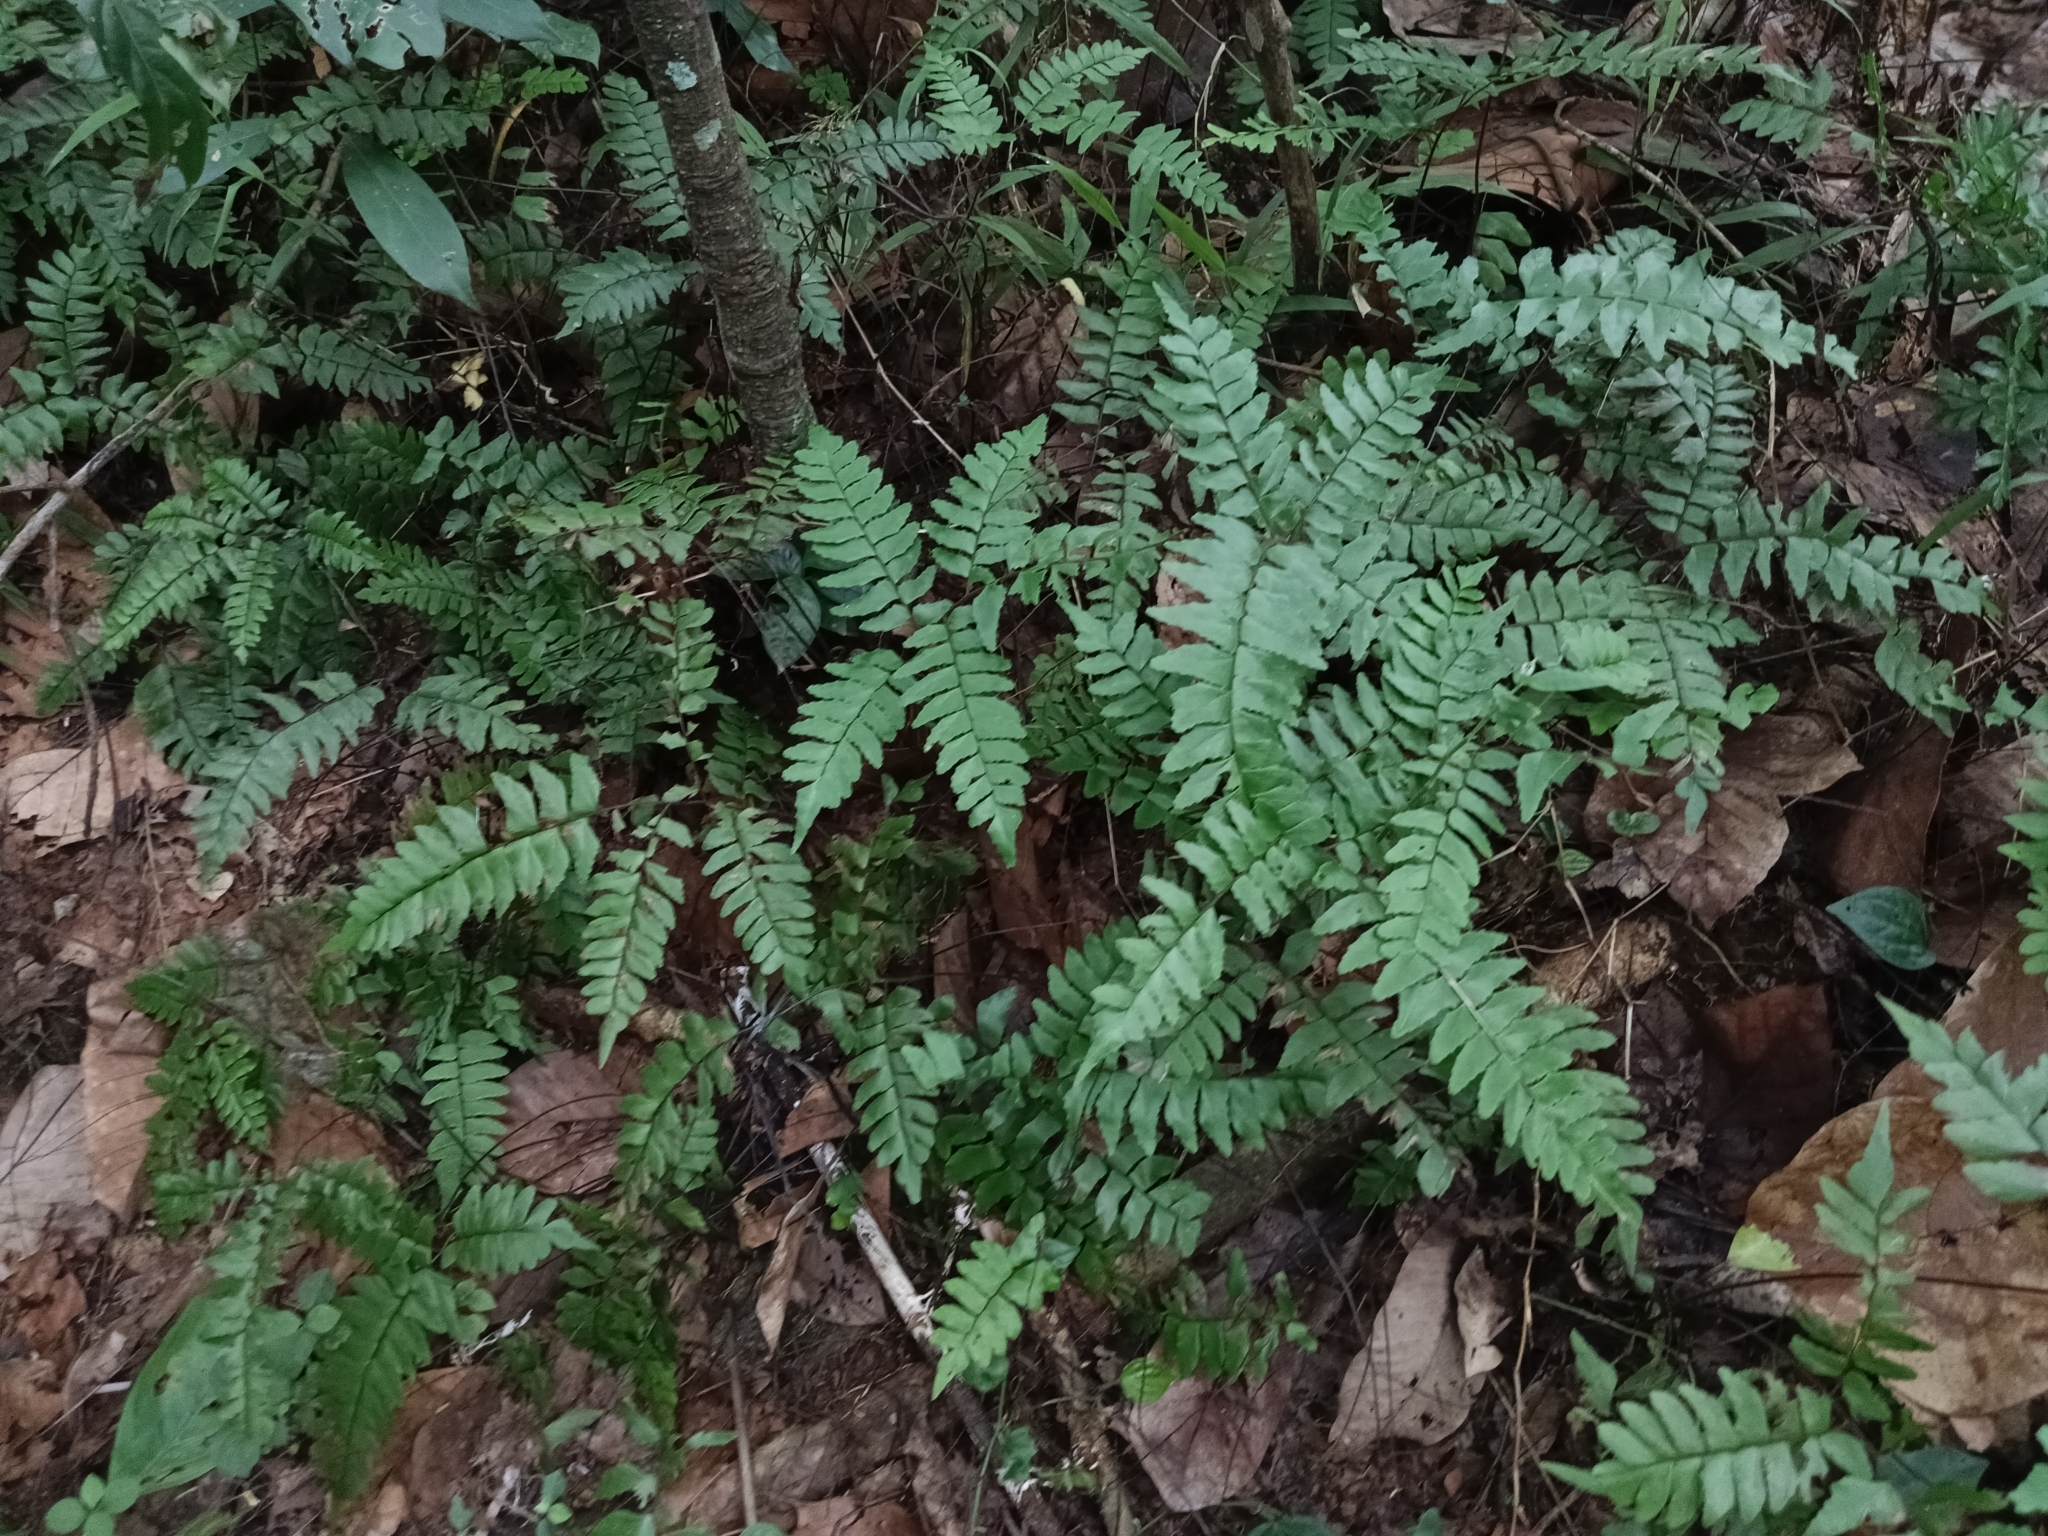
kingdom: Plantae
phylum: Tracheophyta
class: Polypodiopsida
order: Polypodiales
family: Pteridaceae
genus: Adiantum
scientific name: Adiantum latifolium
